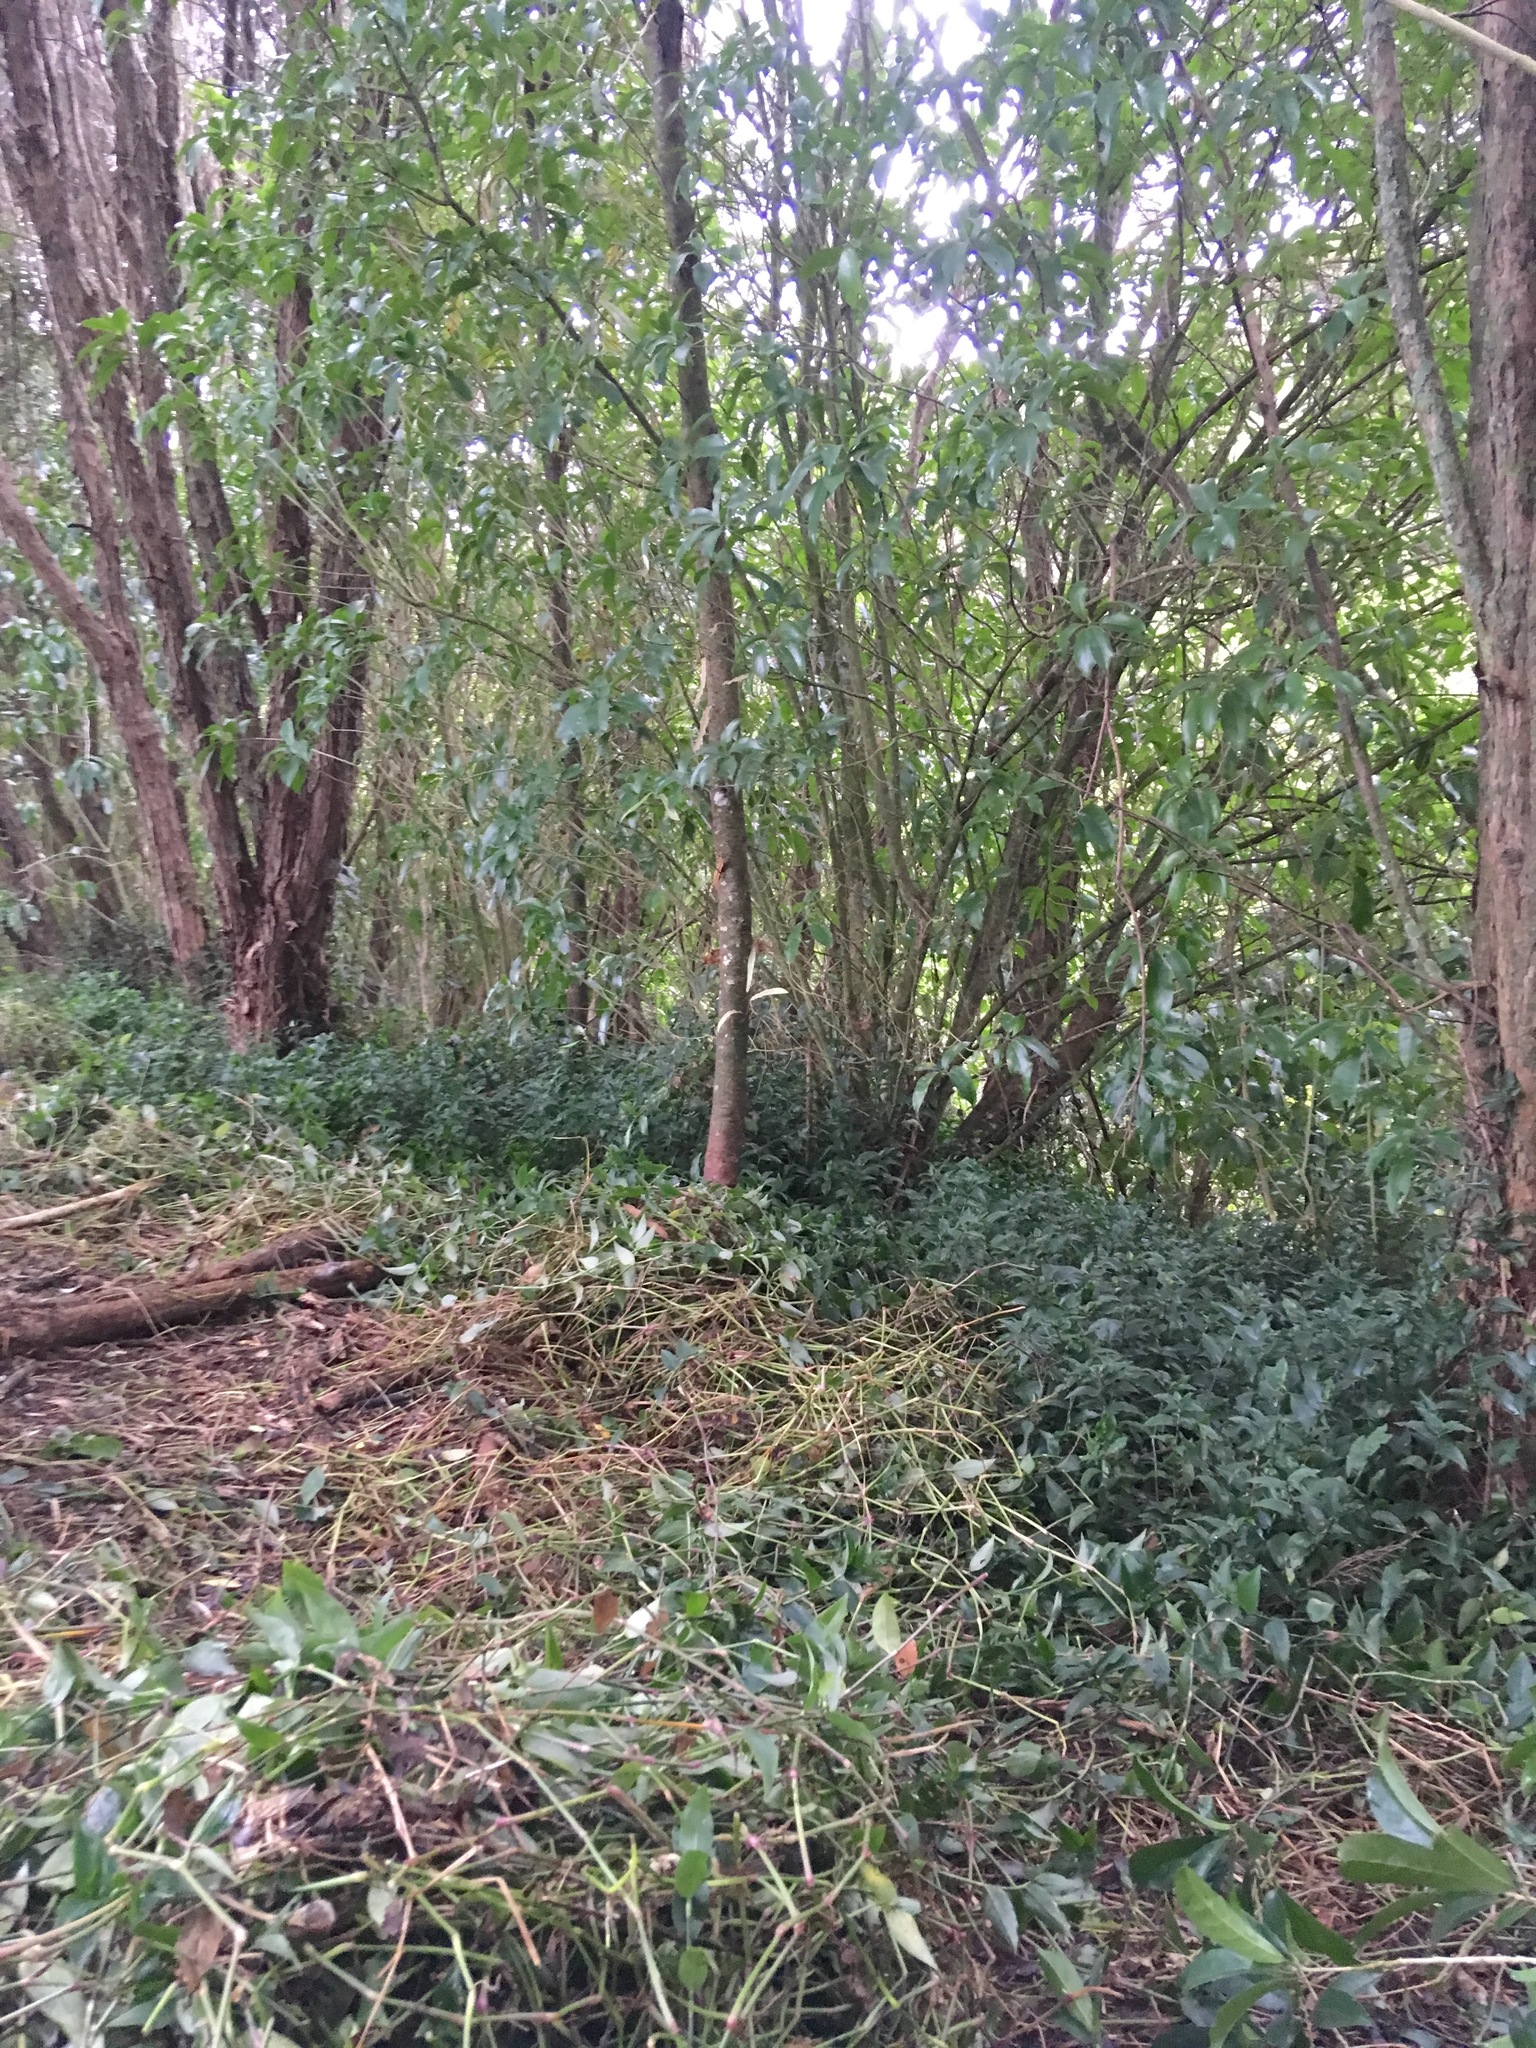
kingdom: Plantae
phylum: Tracheophyta
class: Liliopsida
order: Commelinales
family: Commelinaceae
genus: Tradescantia
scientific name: Tradescantia fluminensis
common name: Wandering-jew
